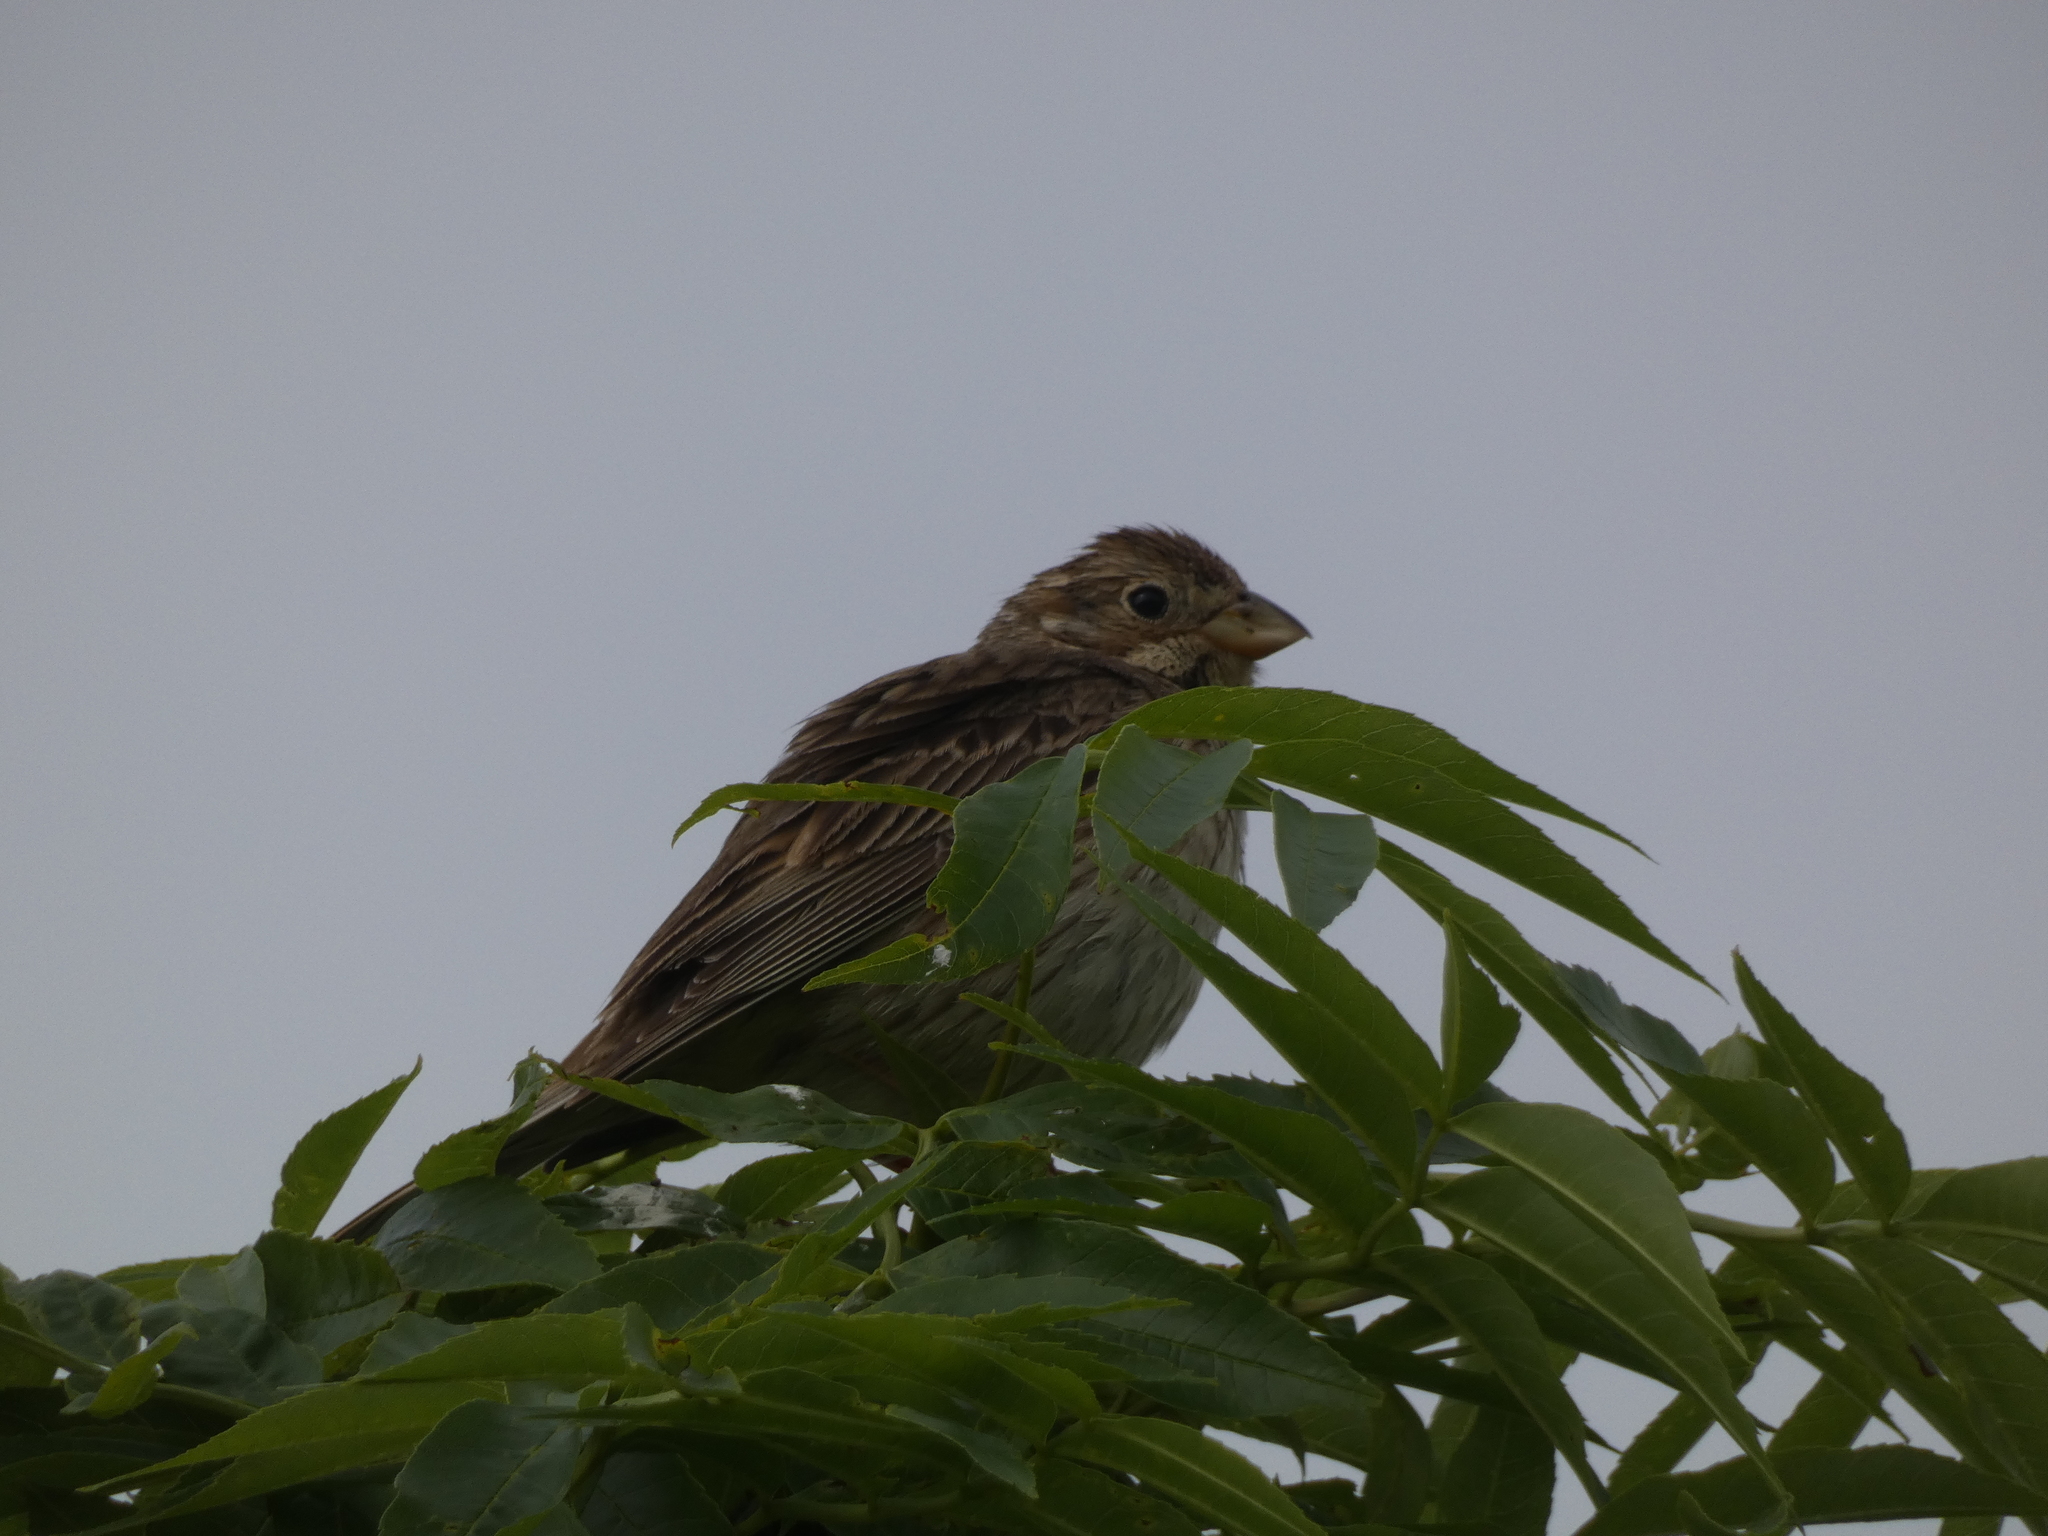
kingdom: Animalia
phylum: Chordata
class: Aves
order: Passeriformes
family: Emberizidae
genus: Emberiza
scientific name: Emberiza calandra
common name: Corn bunting
